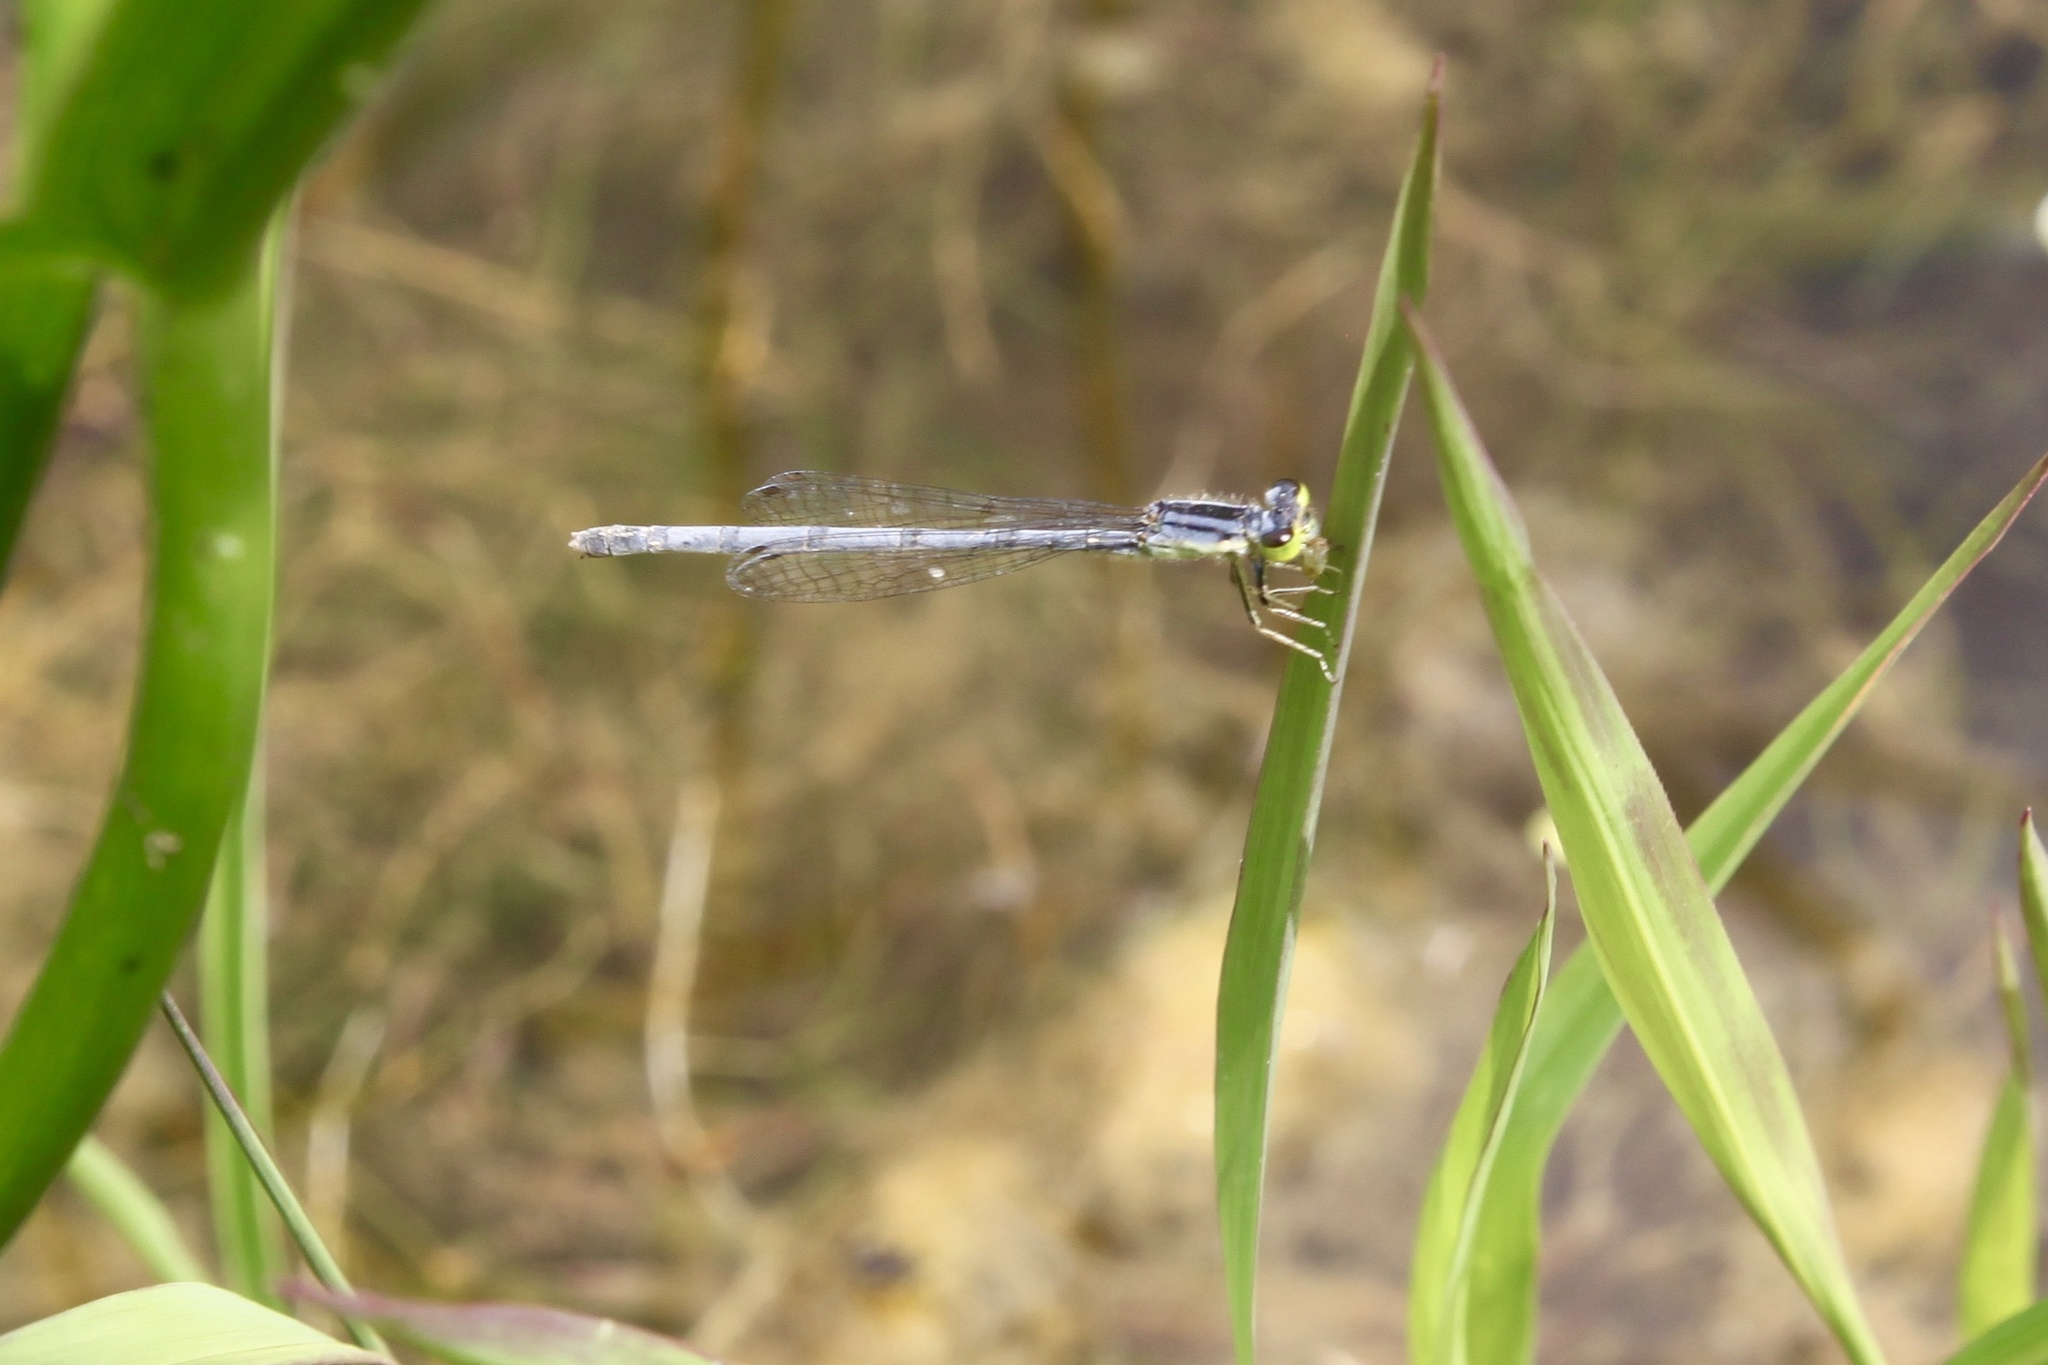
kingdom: Animalia
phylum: Arthropoda
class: Insecta
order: Odonata
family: Coenagrionidae
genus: Ischnura
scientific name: Ischnura verticalis
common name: Eastern forktail
